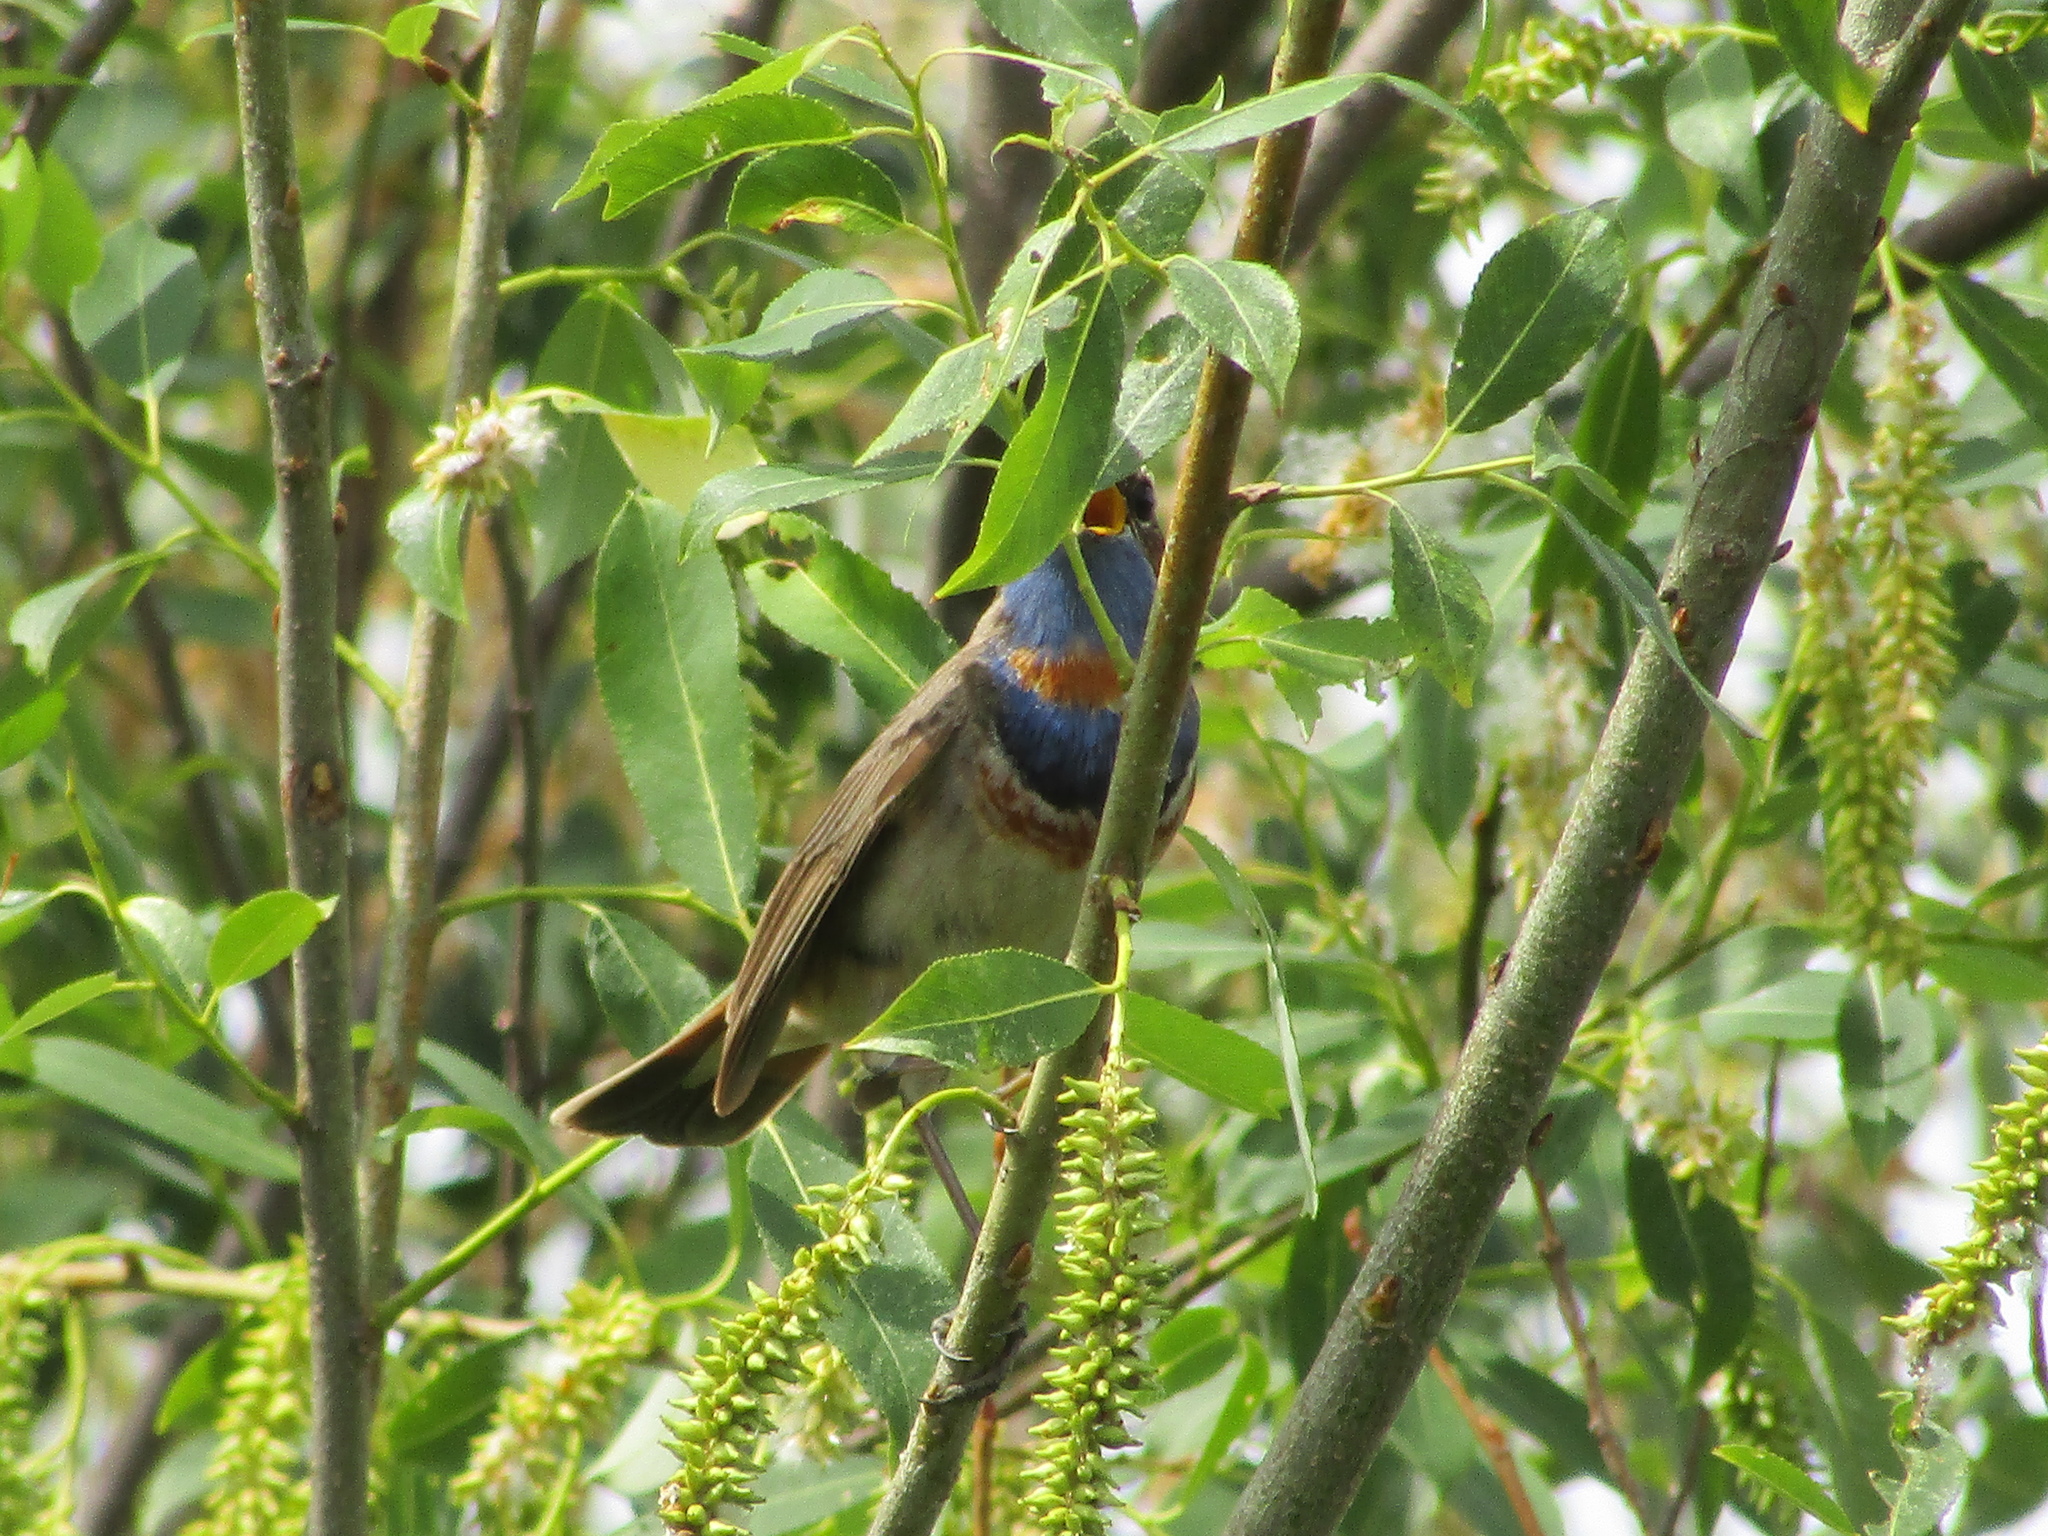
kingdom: Animalia
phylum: Chordata
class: Aves
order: Passeriformes
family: Muscicapidae
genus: Luscinia
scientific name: Luscinia svecica
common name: Bluethroat
